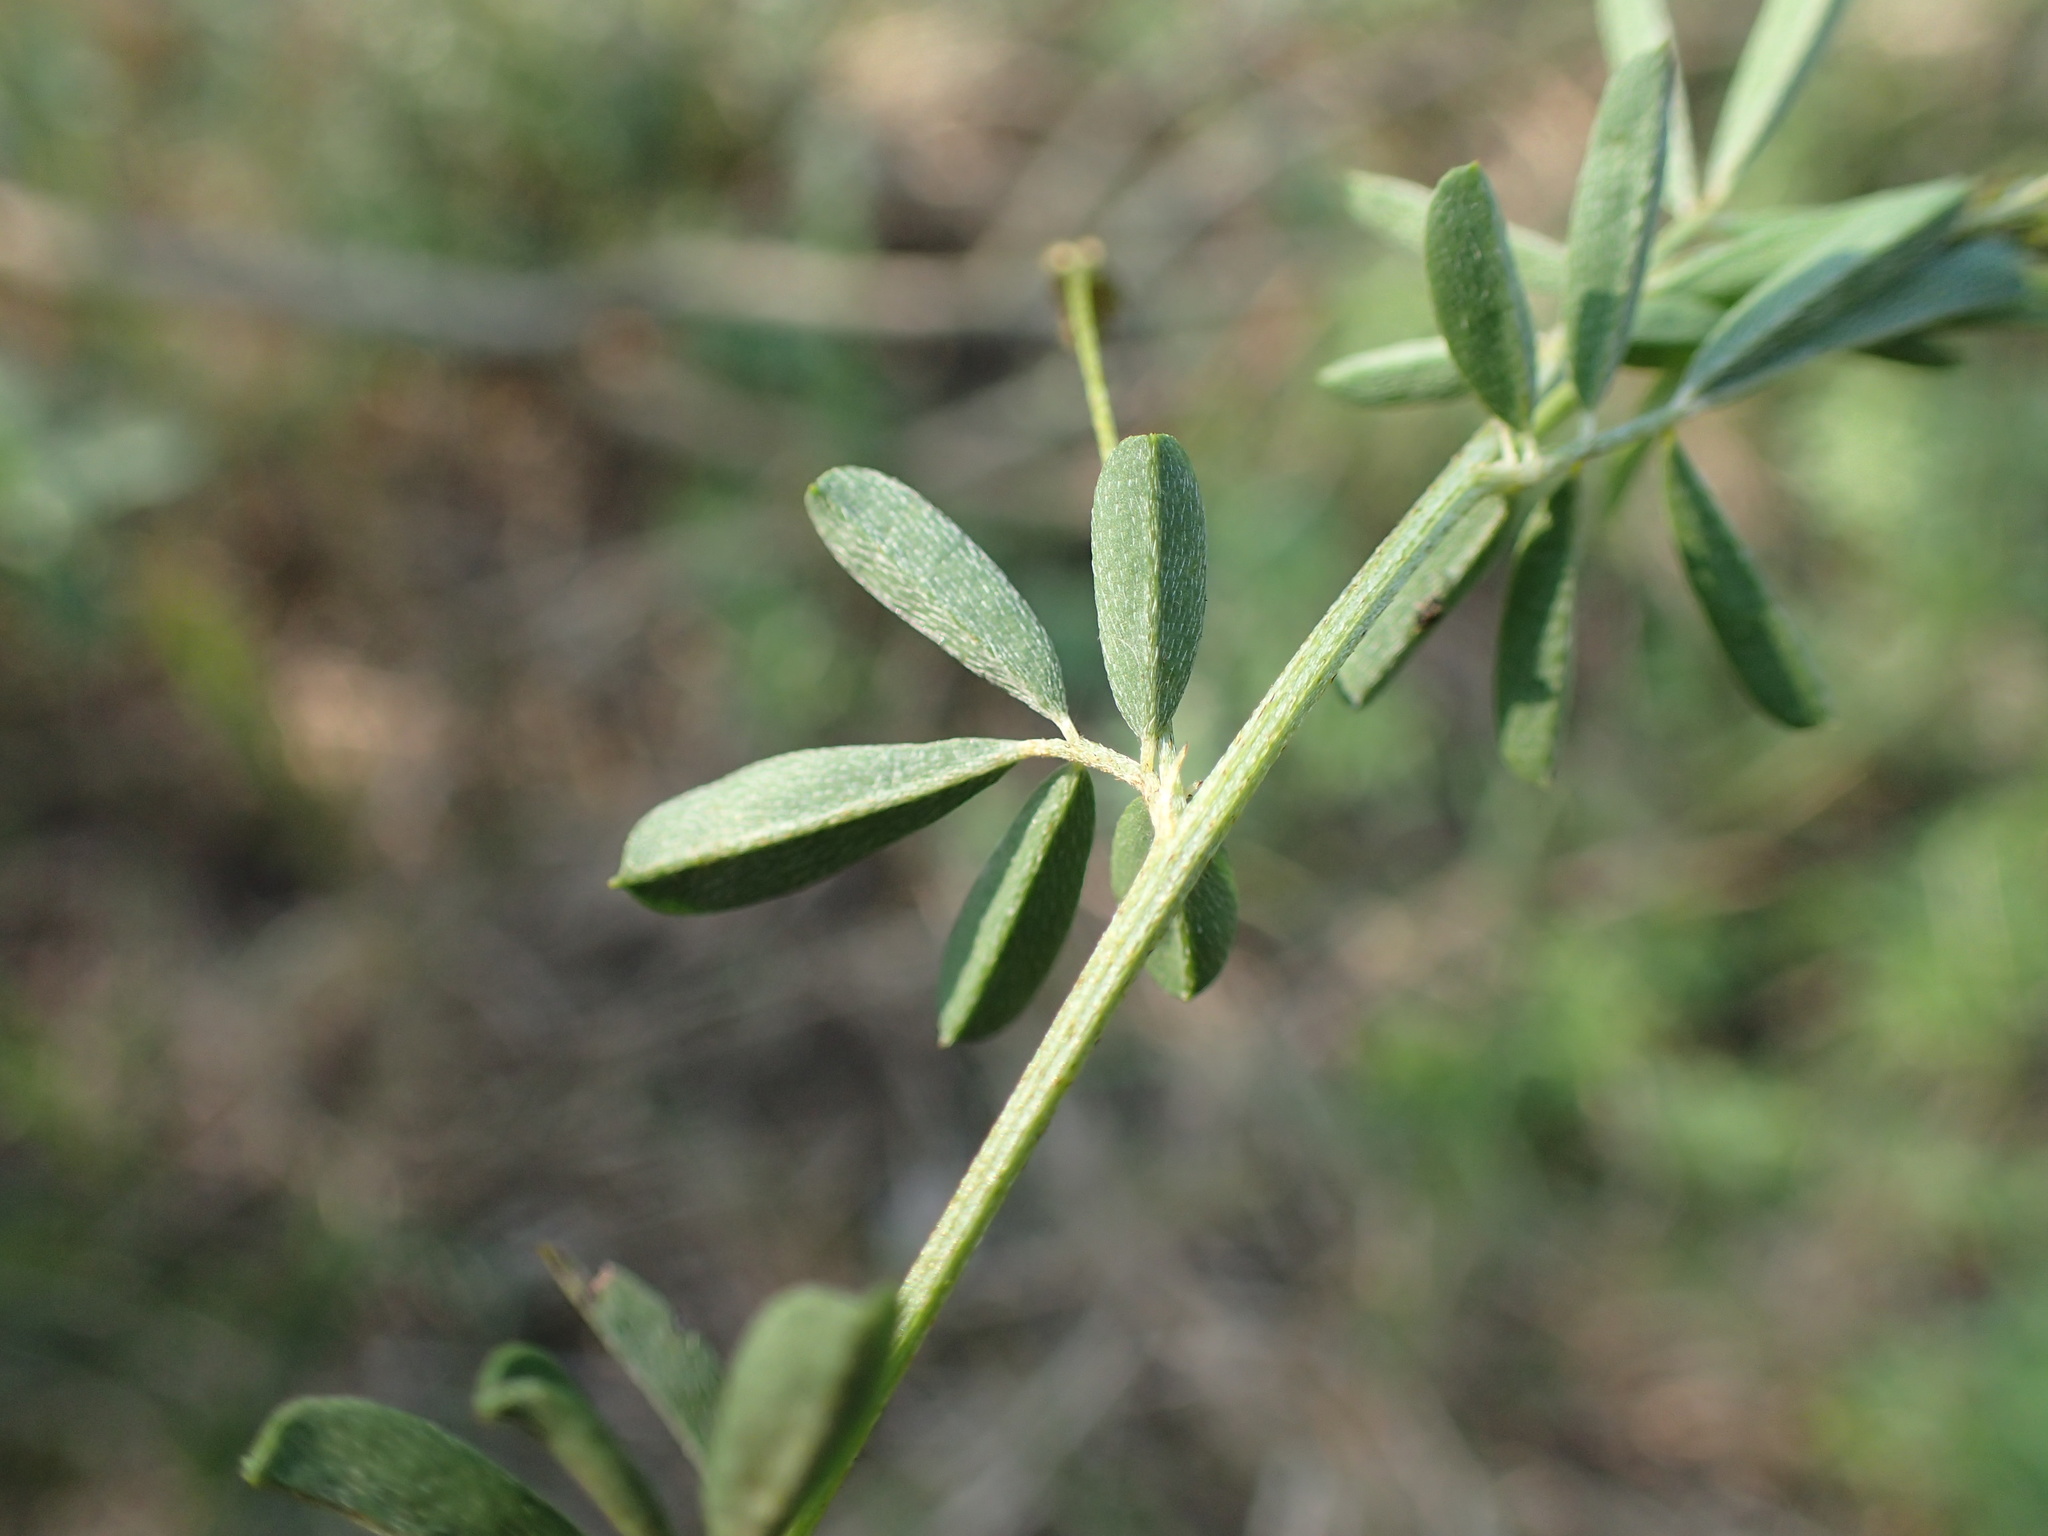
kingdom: Plantae
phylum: Tracheophyta
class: Magnoliopsida
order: Fabales
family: Fabaceae
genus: Indigofera
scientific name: Indigofera
